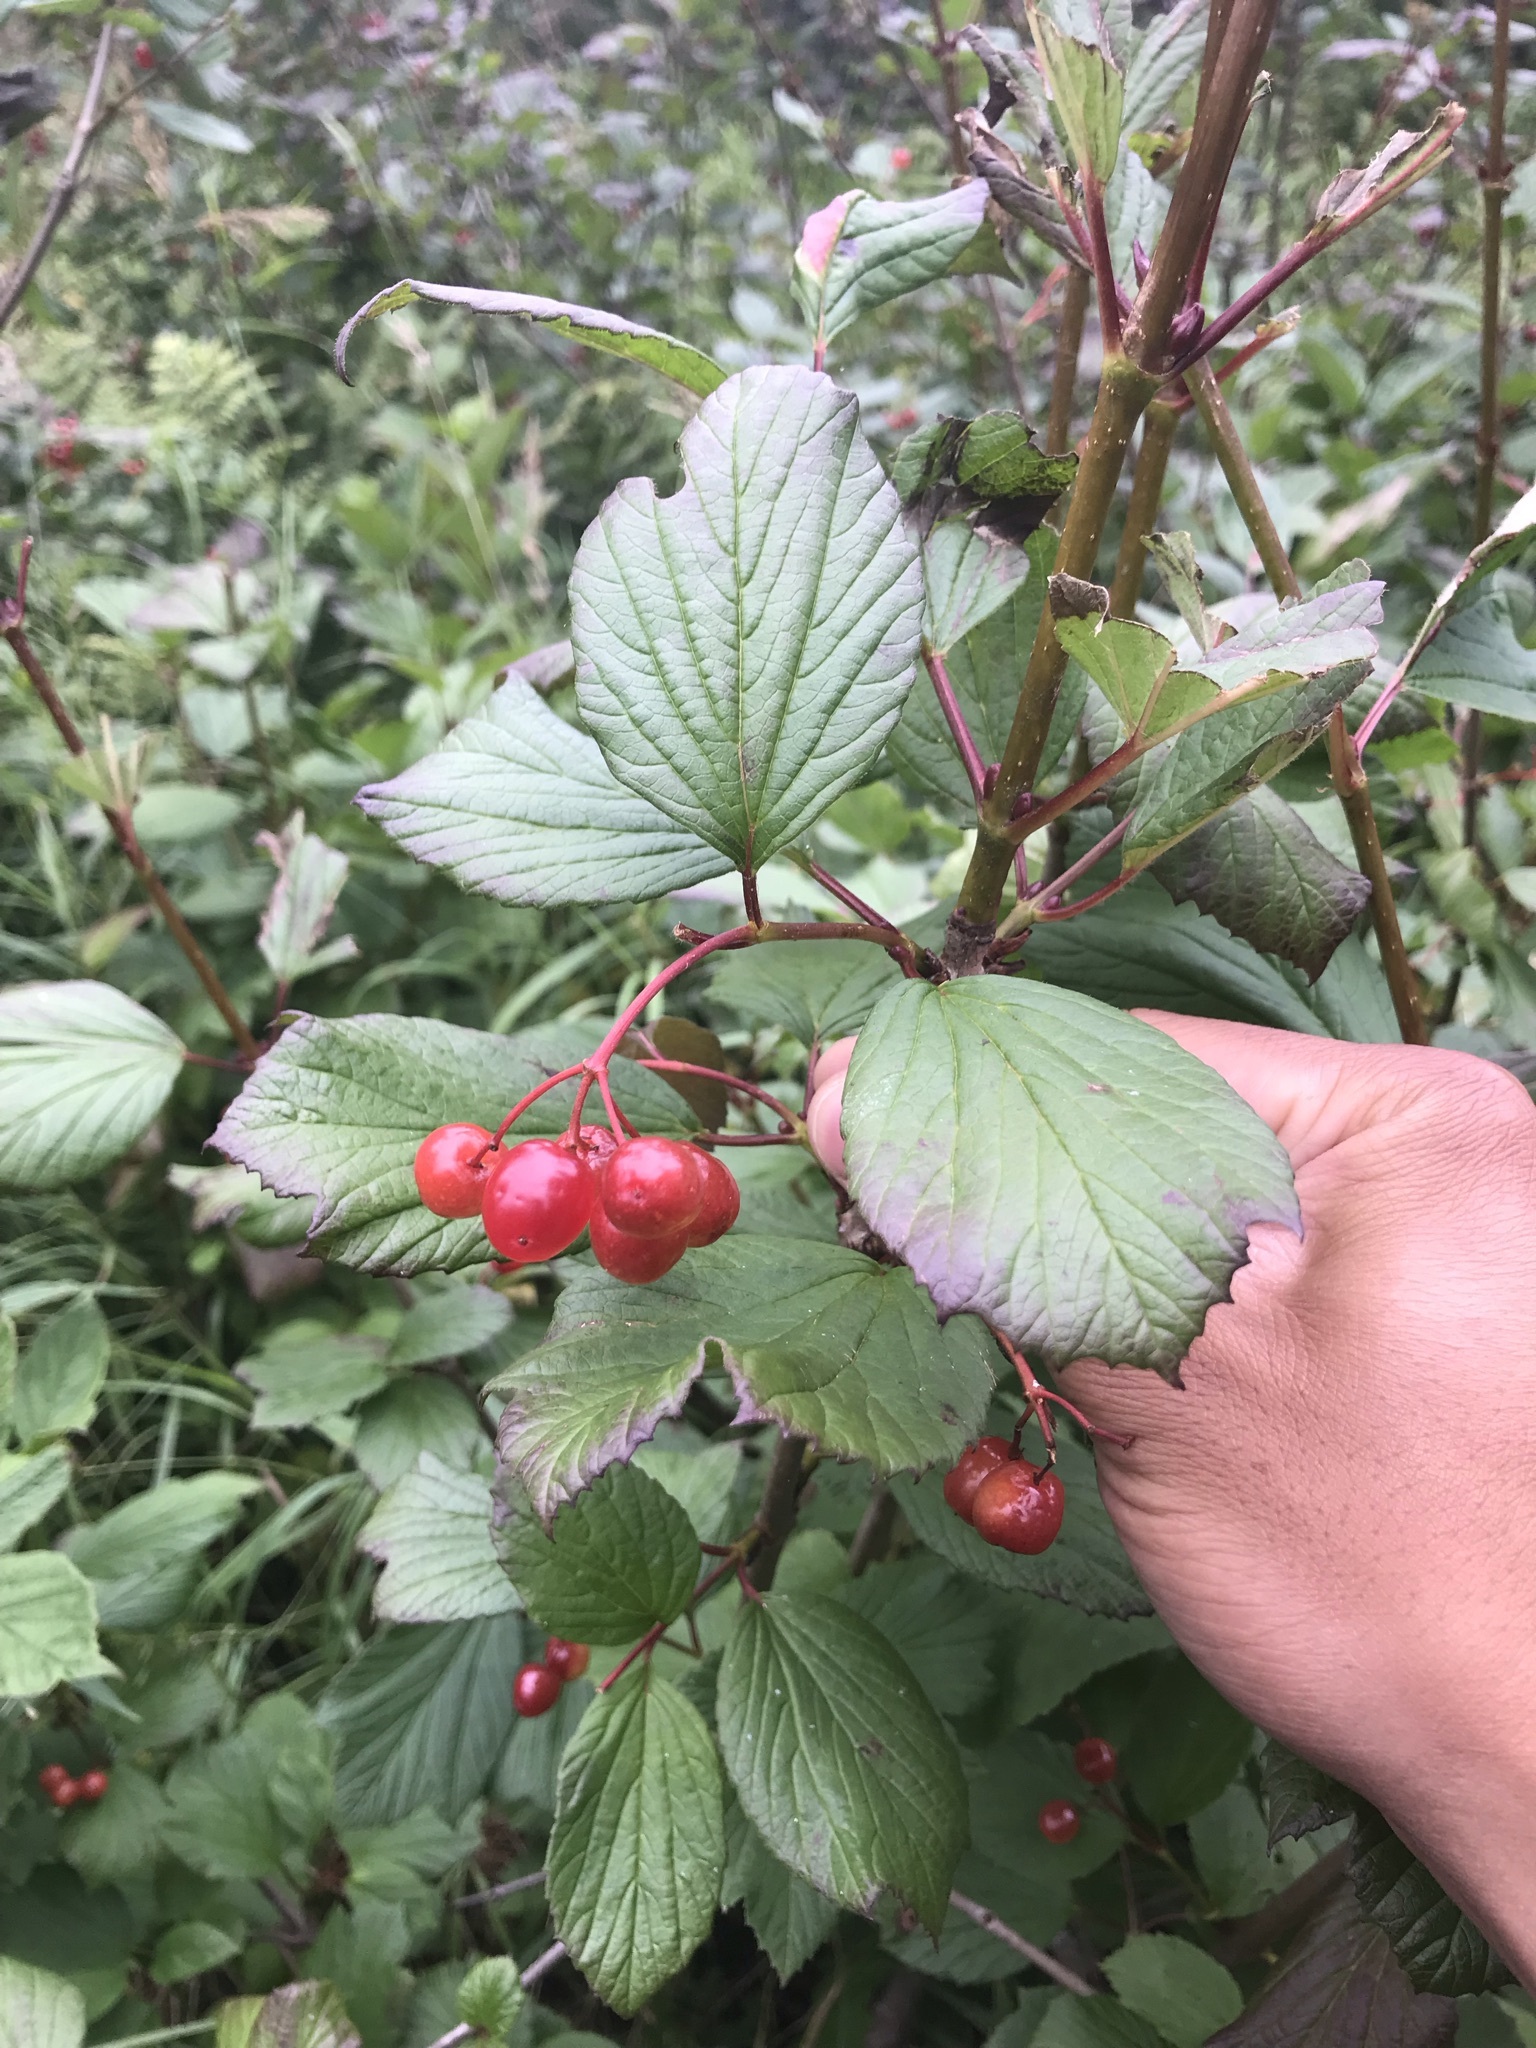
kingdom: Plantae
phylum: Tracheophyta
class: Magnoliopsida
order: Dipsacales
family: Viburnaceae
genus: Viburnum
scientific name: Viburnum edule
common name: Mooseberry
